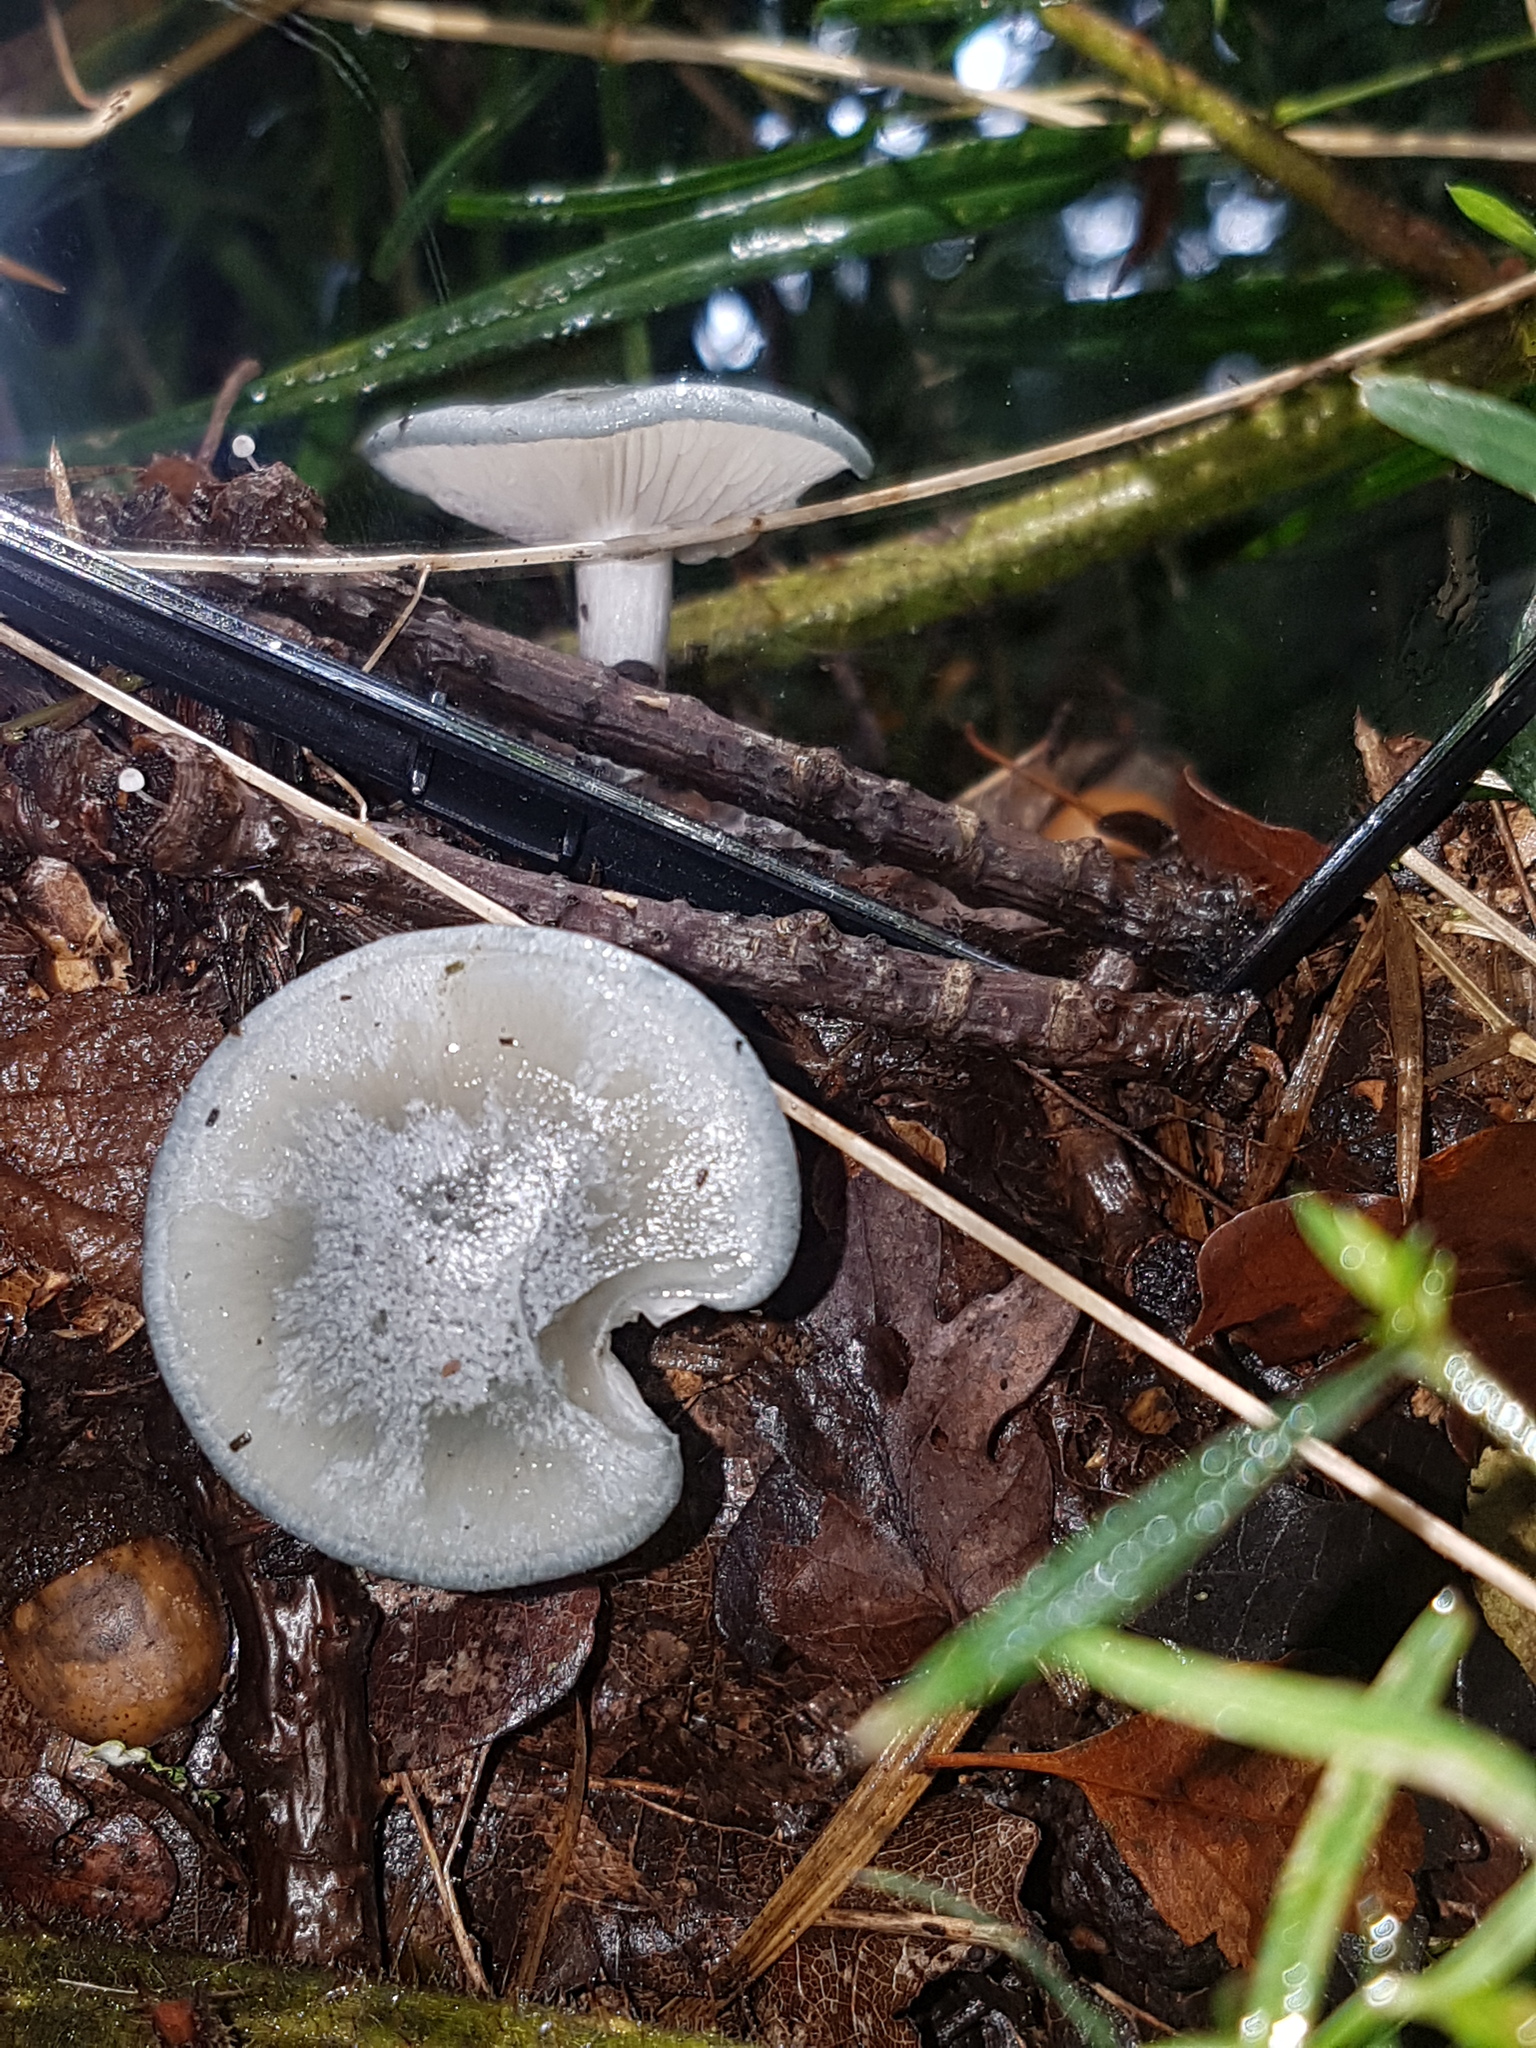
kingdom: Fungi
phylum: Basidiomycota
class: Agaricomycetes
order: Agaricales
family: Tricholomataceae
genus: Collybia
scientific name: Collybia
